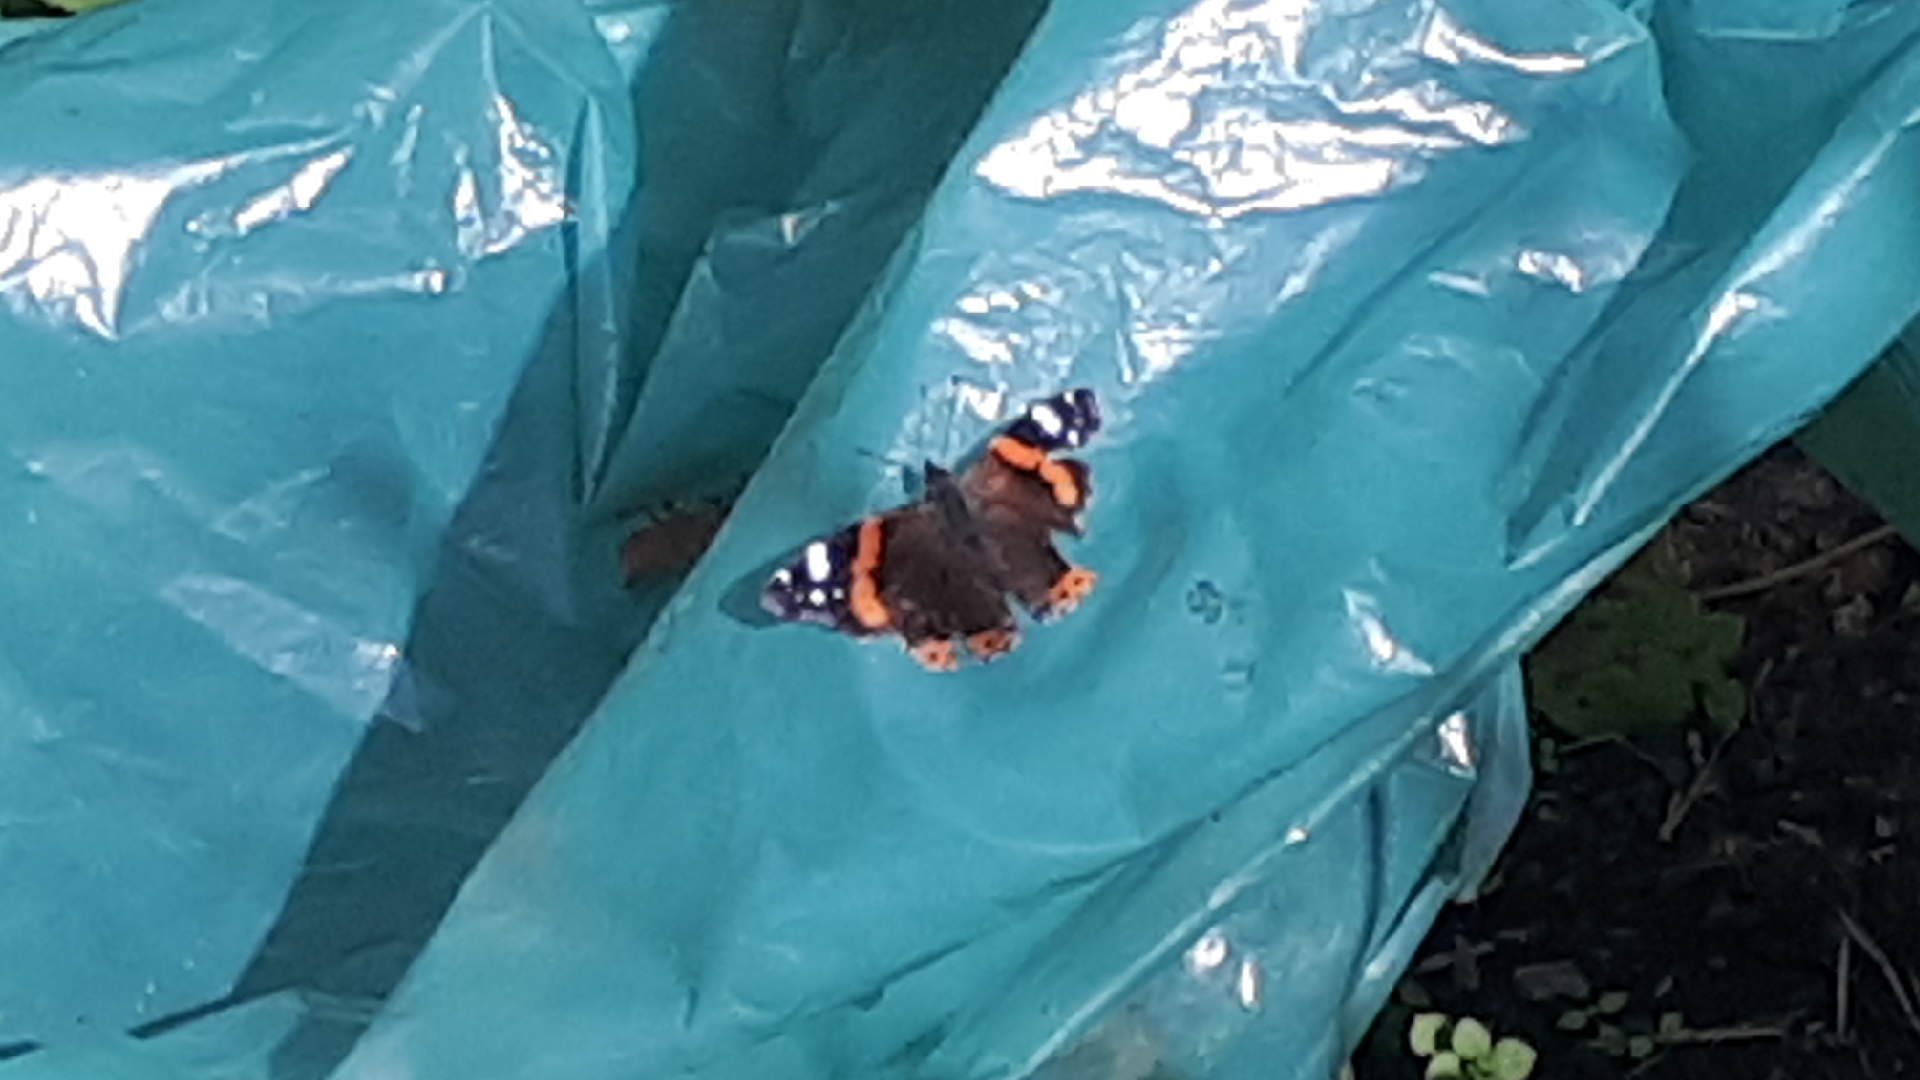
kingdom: Animalia
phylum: Arthropoda
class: Insecta
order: Lepidoptera
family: Nymphalidae
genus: Vanessa
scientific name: Vanessa atalanta
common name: Red admiral
